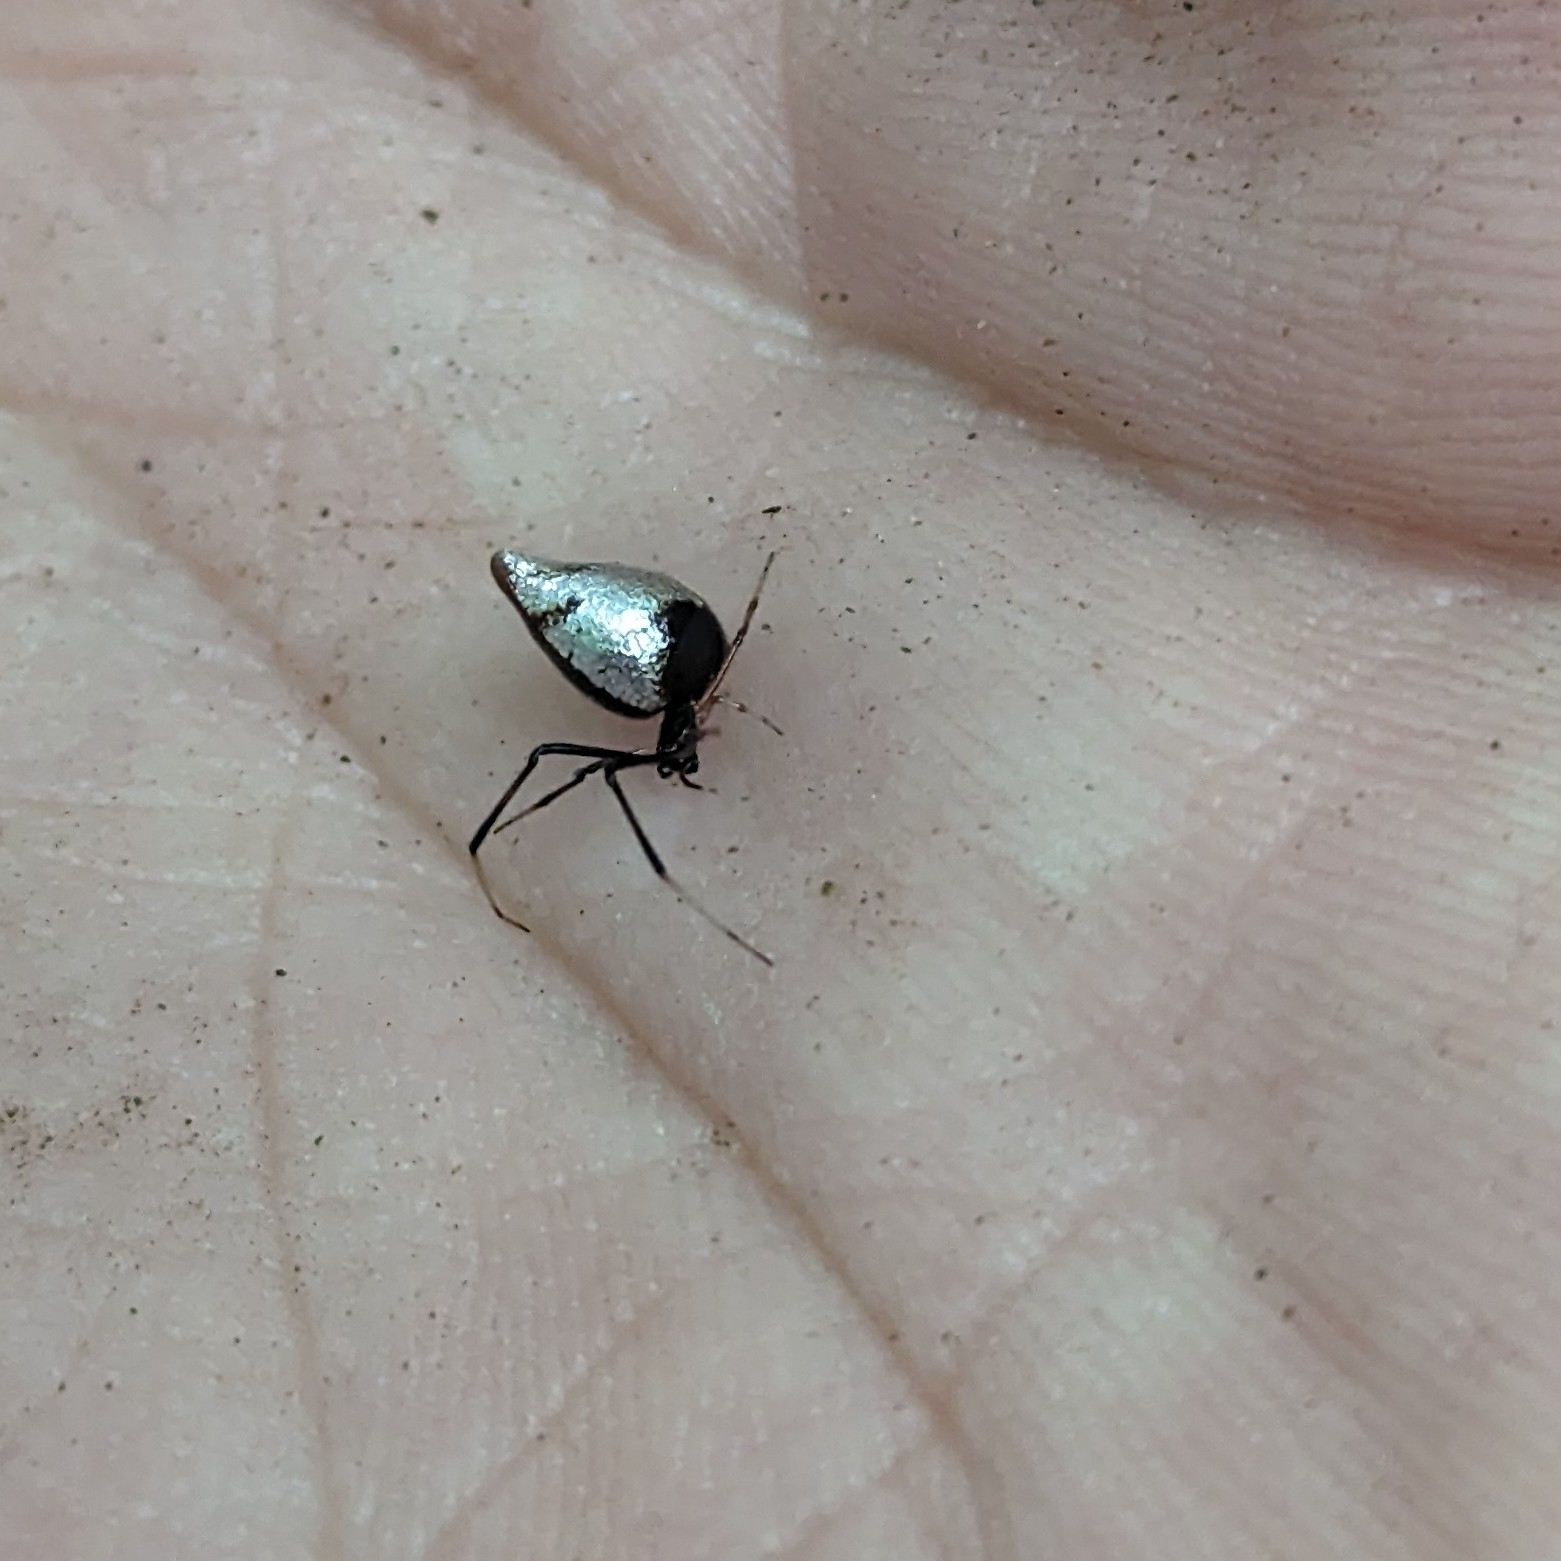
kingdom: Animalia
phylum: Arthropoda
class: Arachnida
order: Araneae
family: Theridiidae
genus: Argyrodes
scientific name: Argyrodes elevatus
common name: Cobweb spiders
